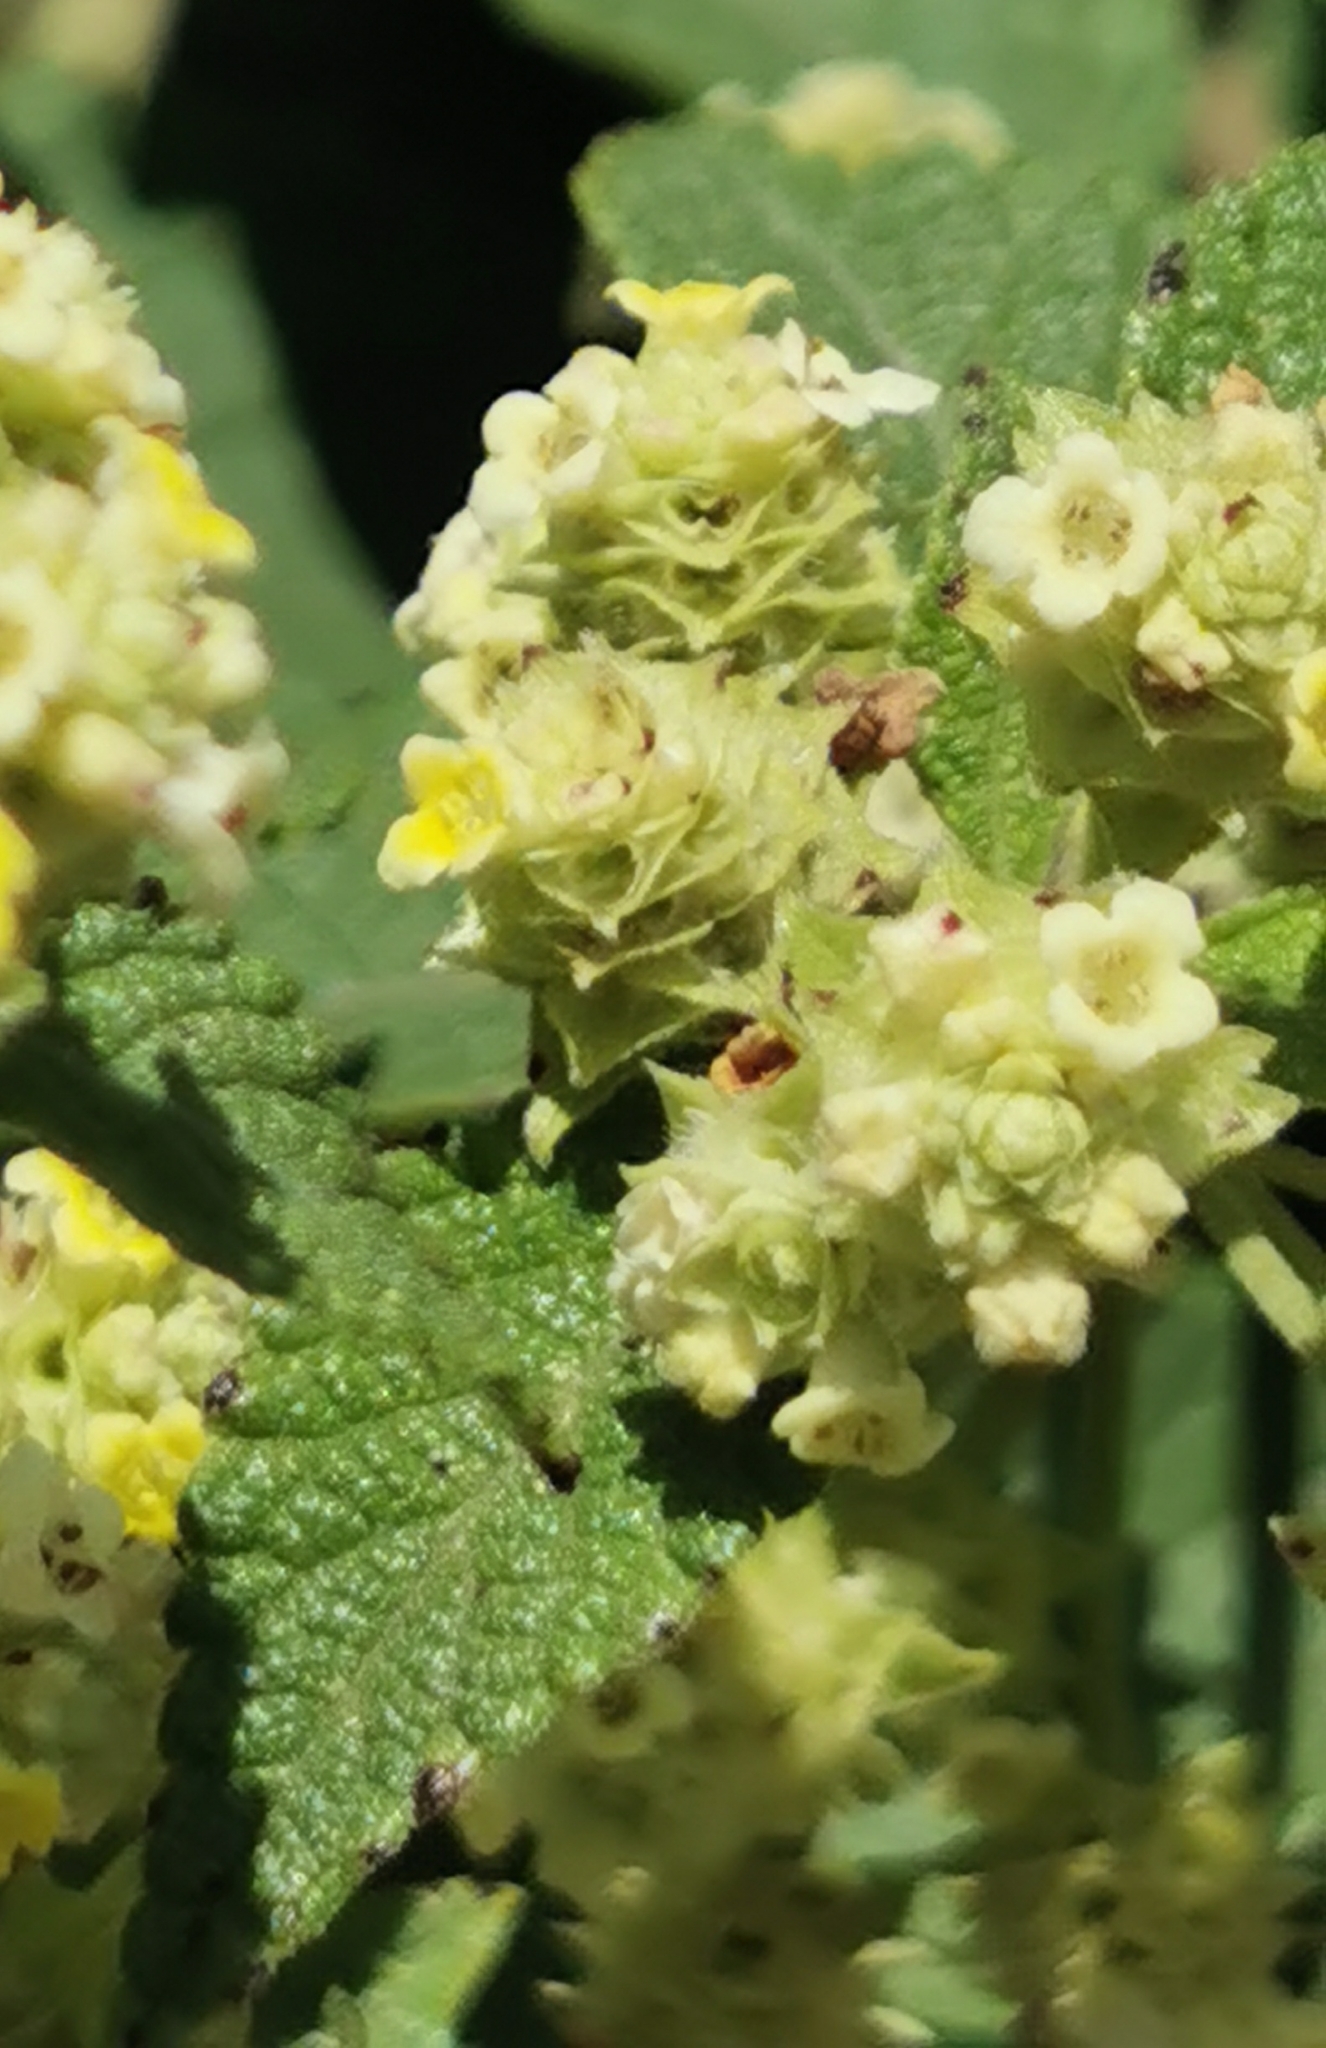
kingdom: Plantae
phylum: Tracheophyta
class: Magnoliopsida
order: Lamiales
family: Verbenaceae
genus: Lippia
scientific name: Lippia chiapasensis
